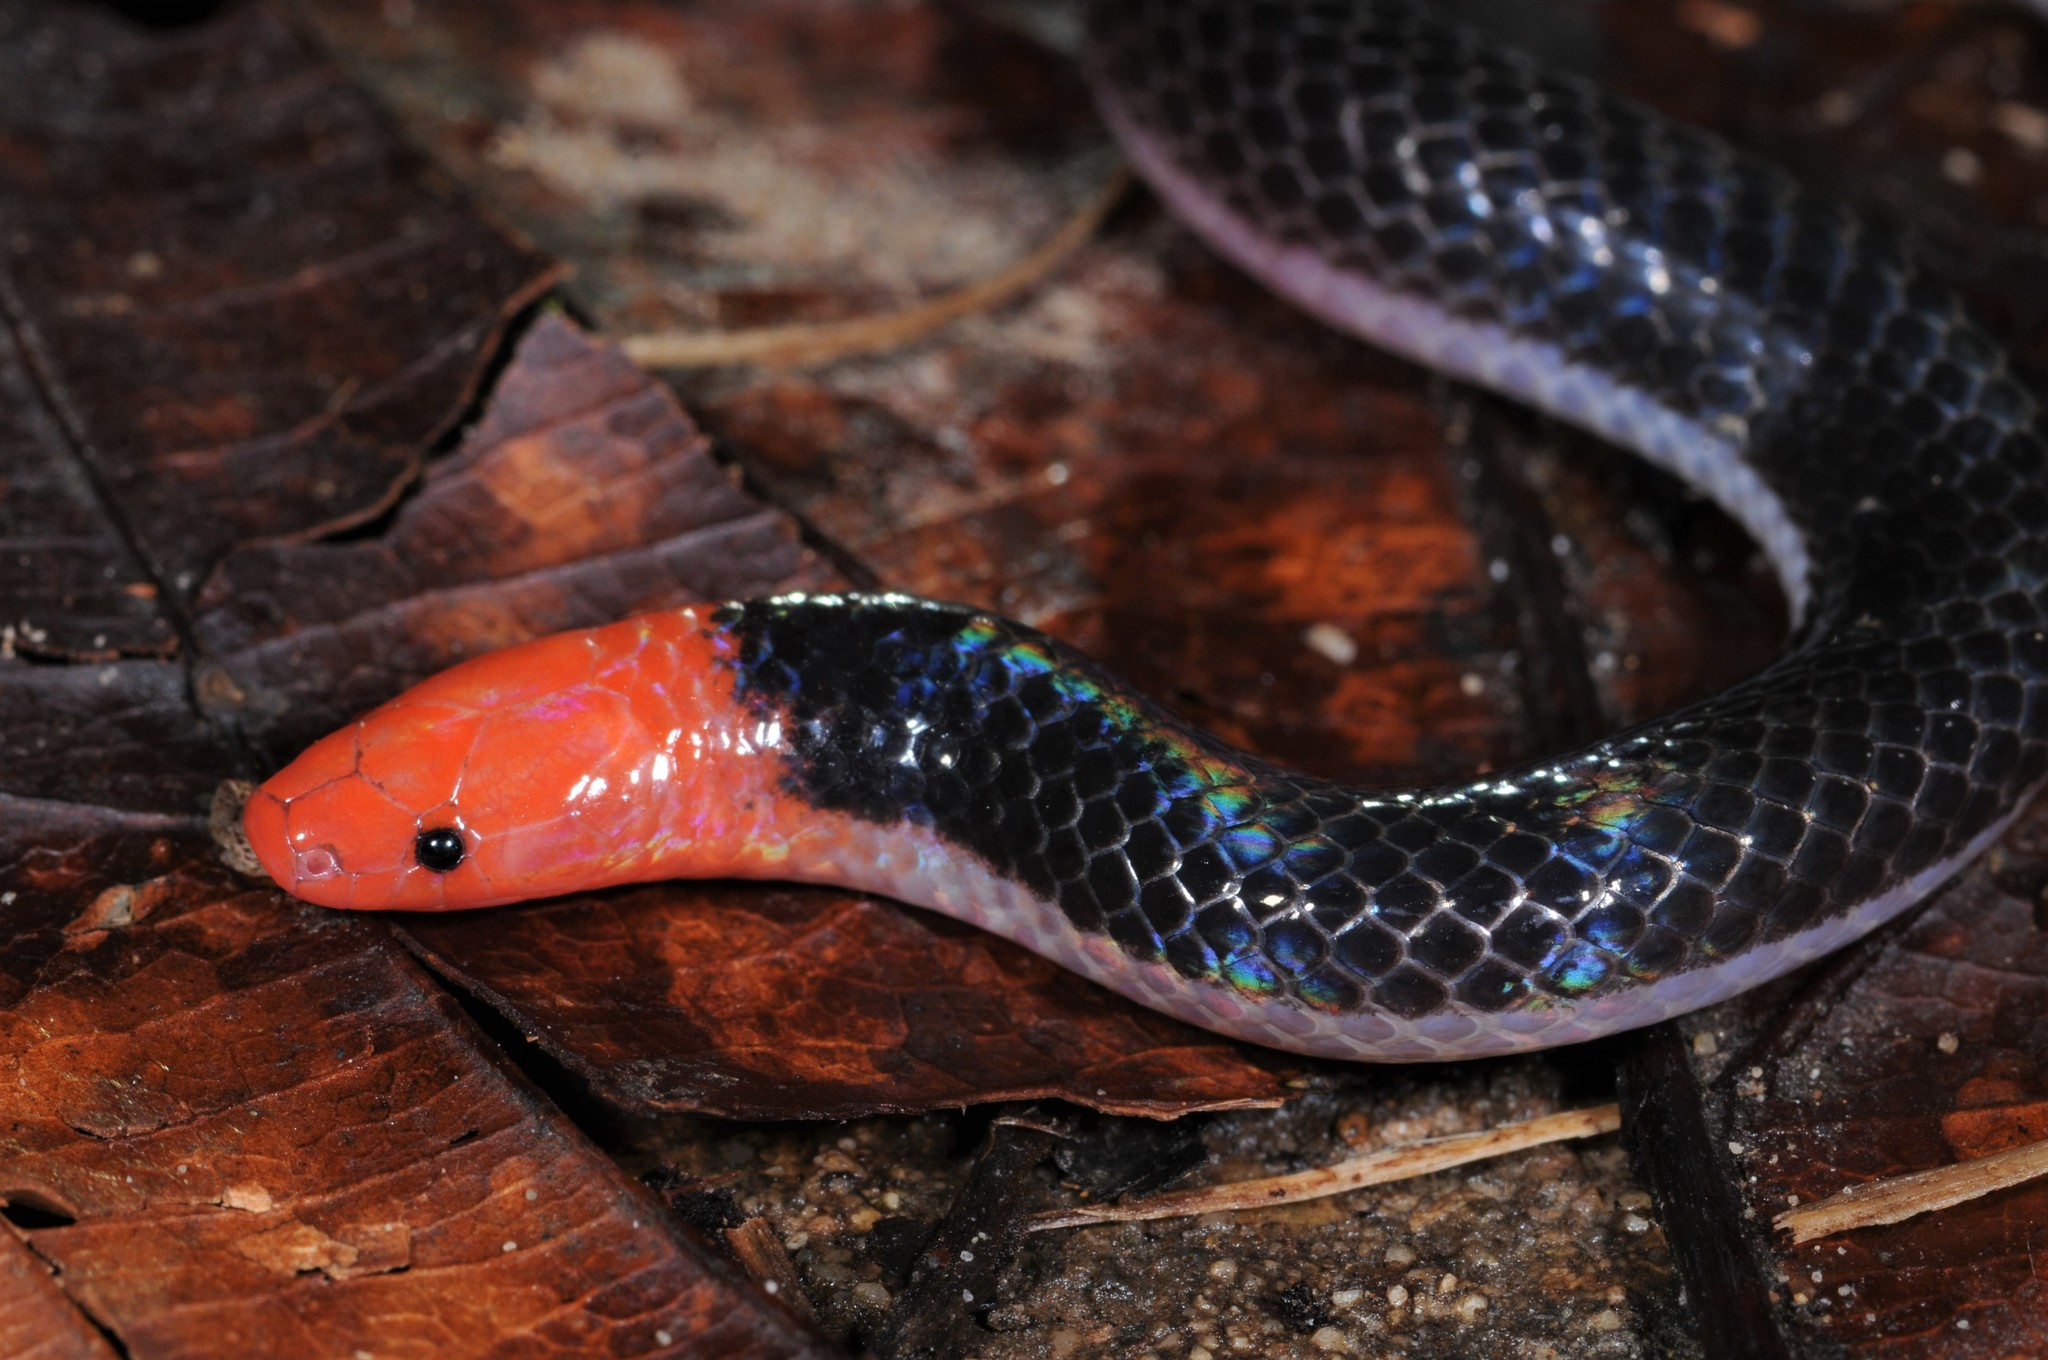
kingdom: Animalia
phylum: Chordata
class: Squamata
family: Colubridae
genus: Calamaria
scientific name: Calamaria schlegeli
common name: Red-headed reed snake
